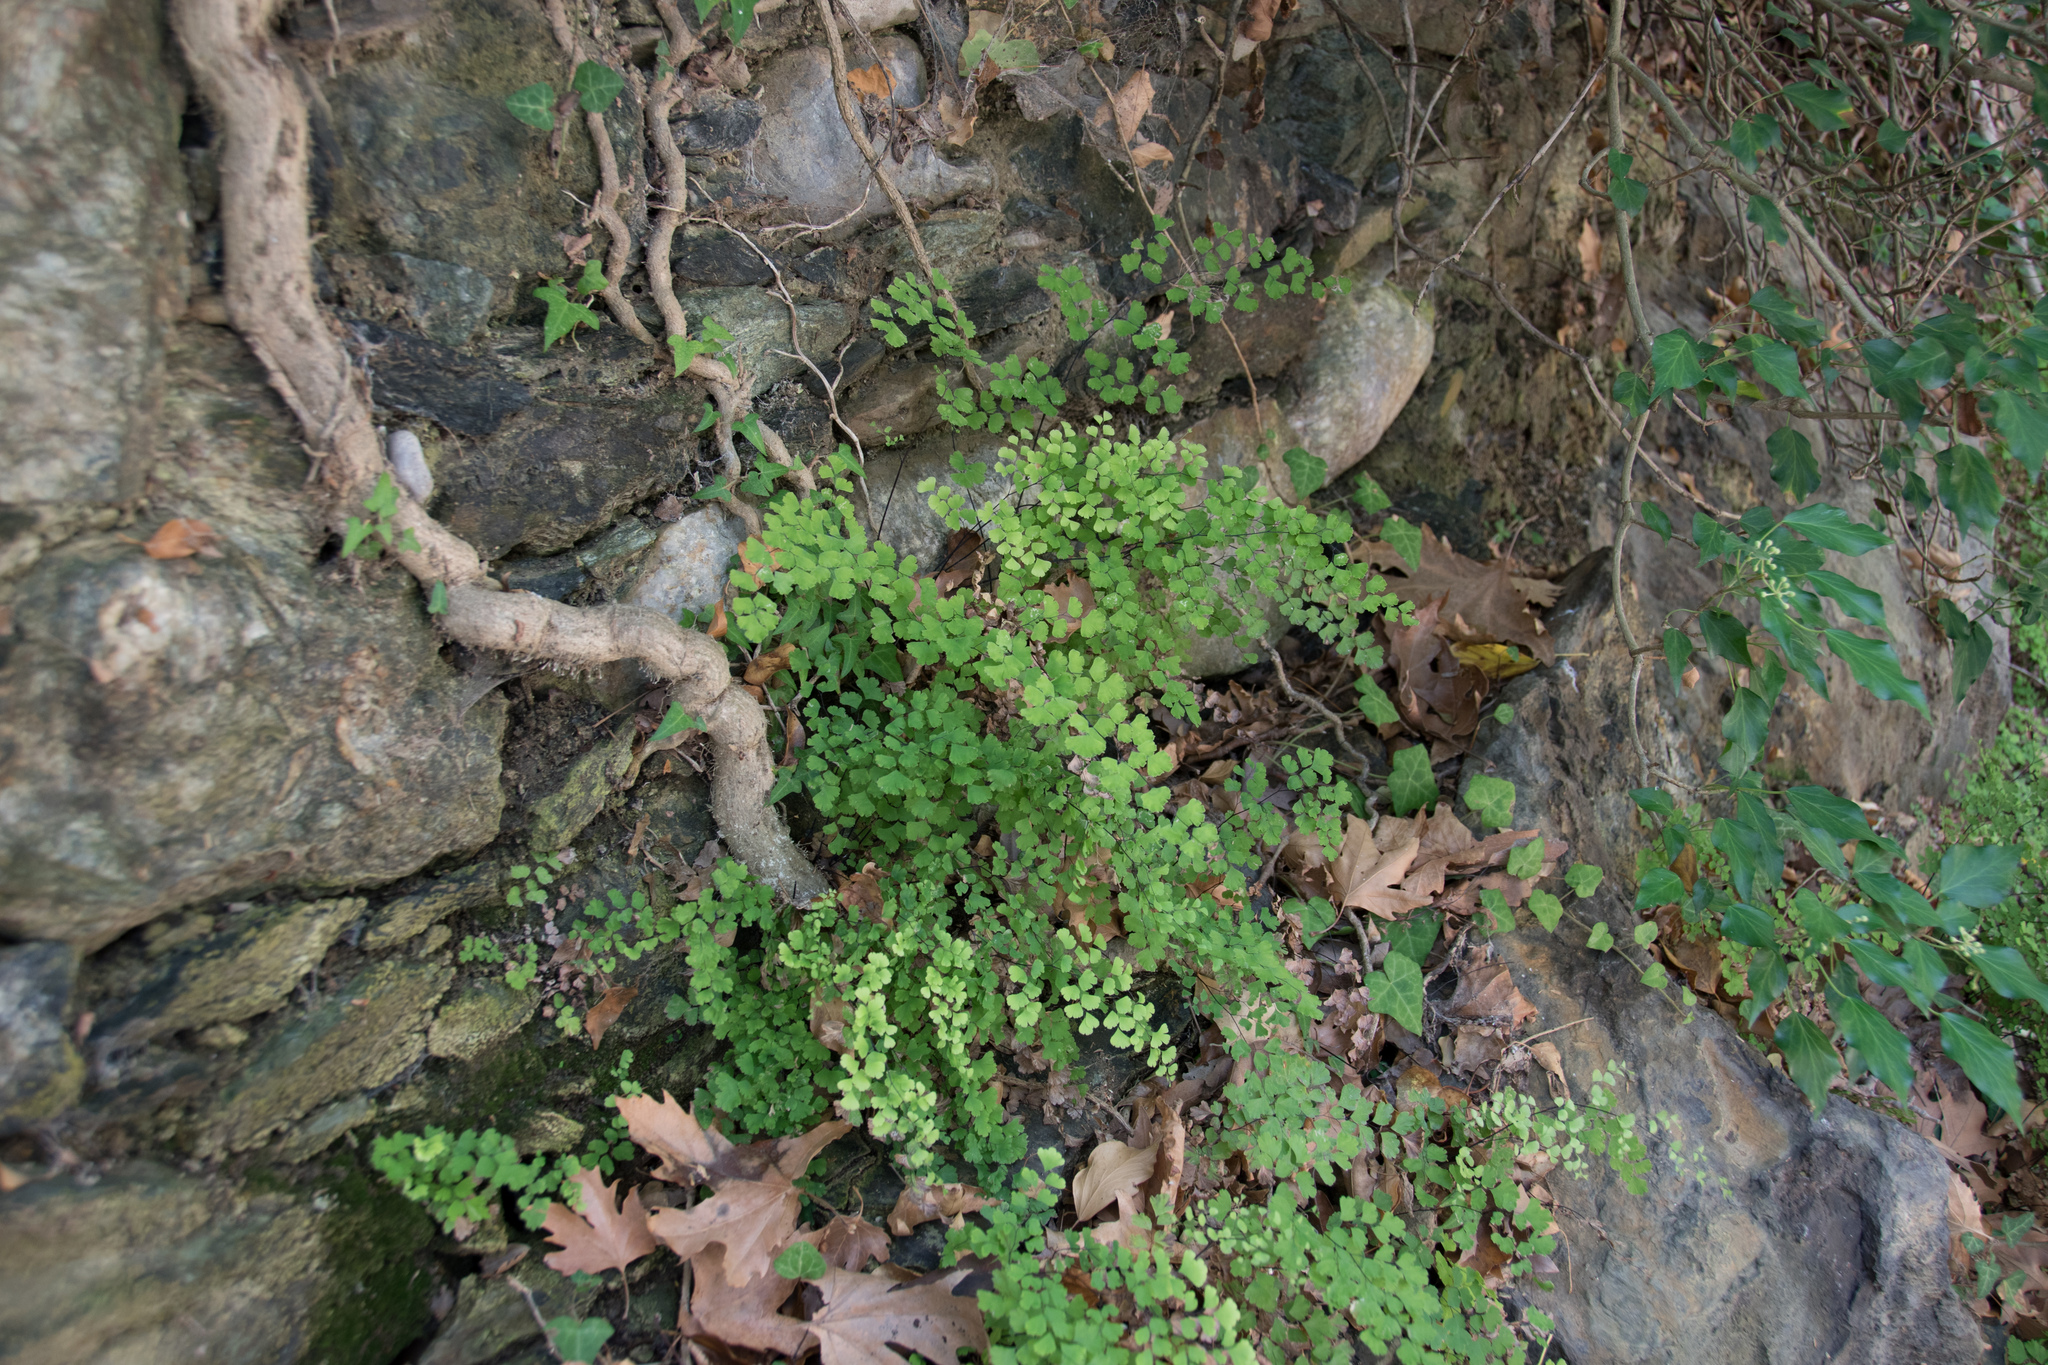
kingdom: Plantae
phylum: Tracheophyta
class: Polypodiopsida
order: Polypodiales
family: Pteridaceae
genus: Adiantum
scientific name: Adiantum capillus-veneris
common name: Maidenhair fern
